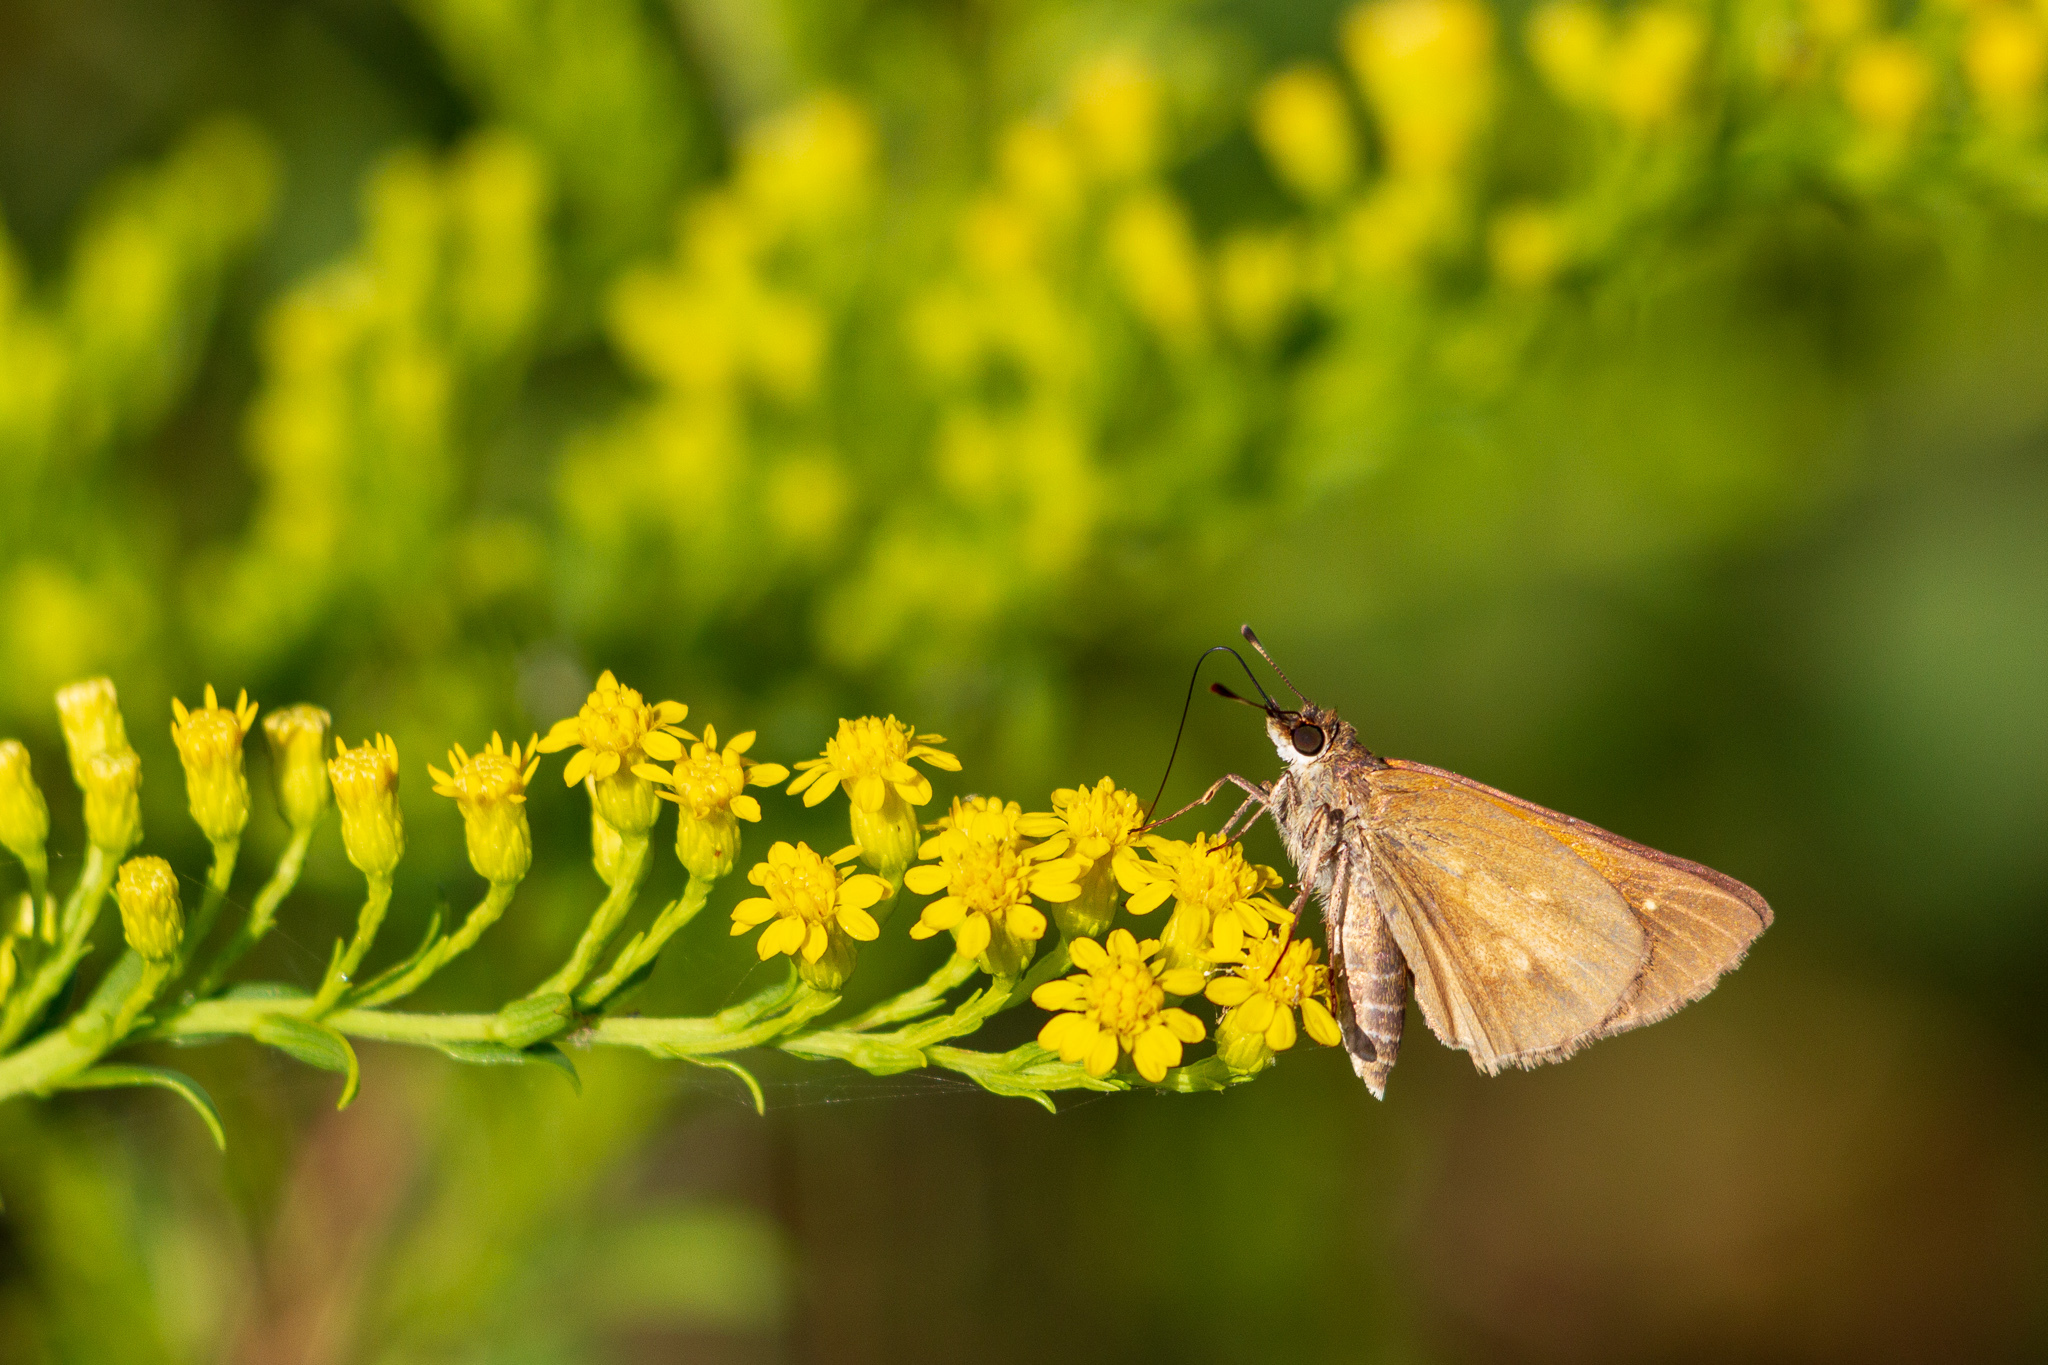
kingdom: Animalia
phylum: Arthropoda
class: Insecta
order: Lepidoptera
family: Hesperiidae
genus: Poanes
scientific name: Poanes viator
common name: Broad-winged skipper
